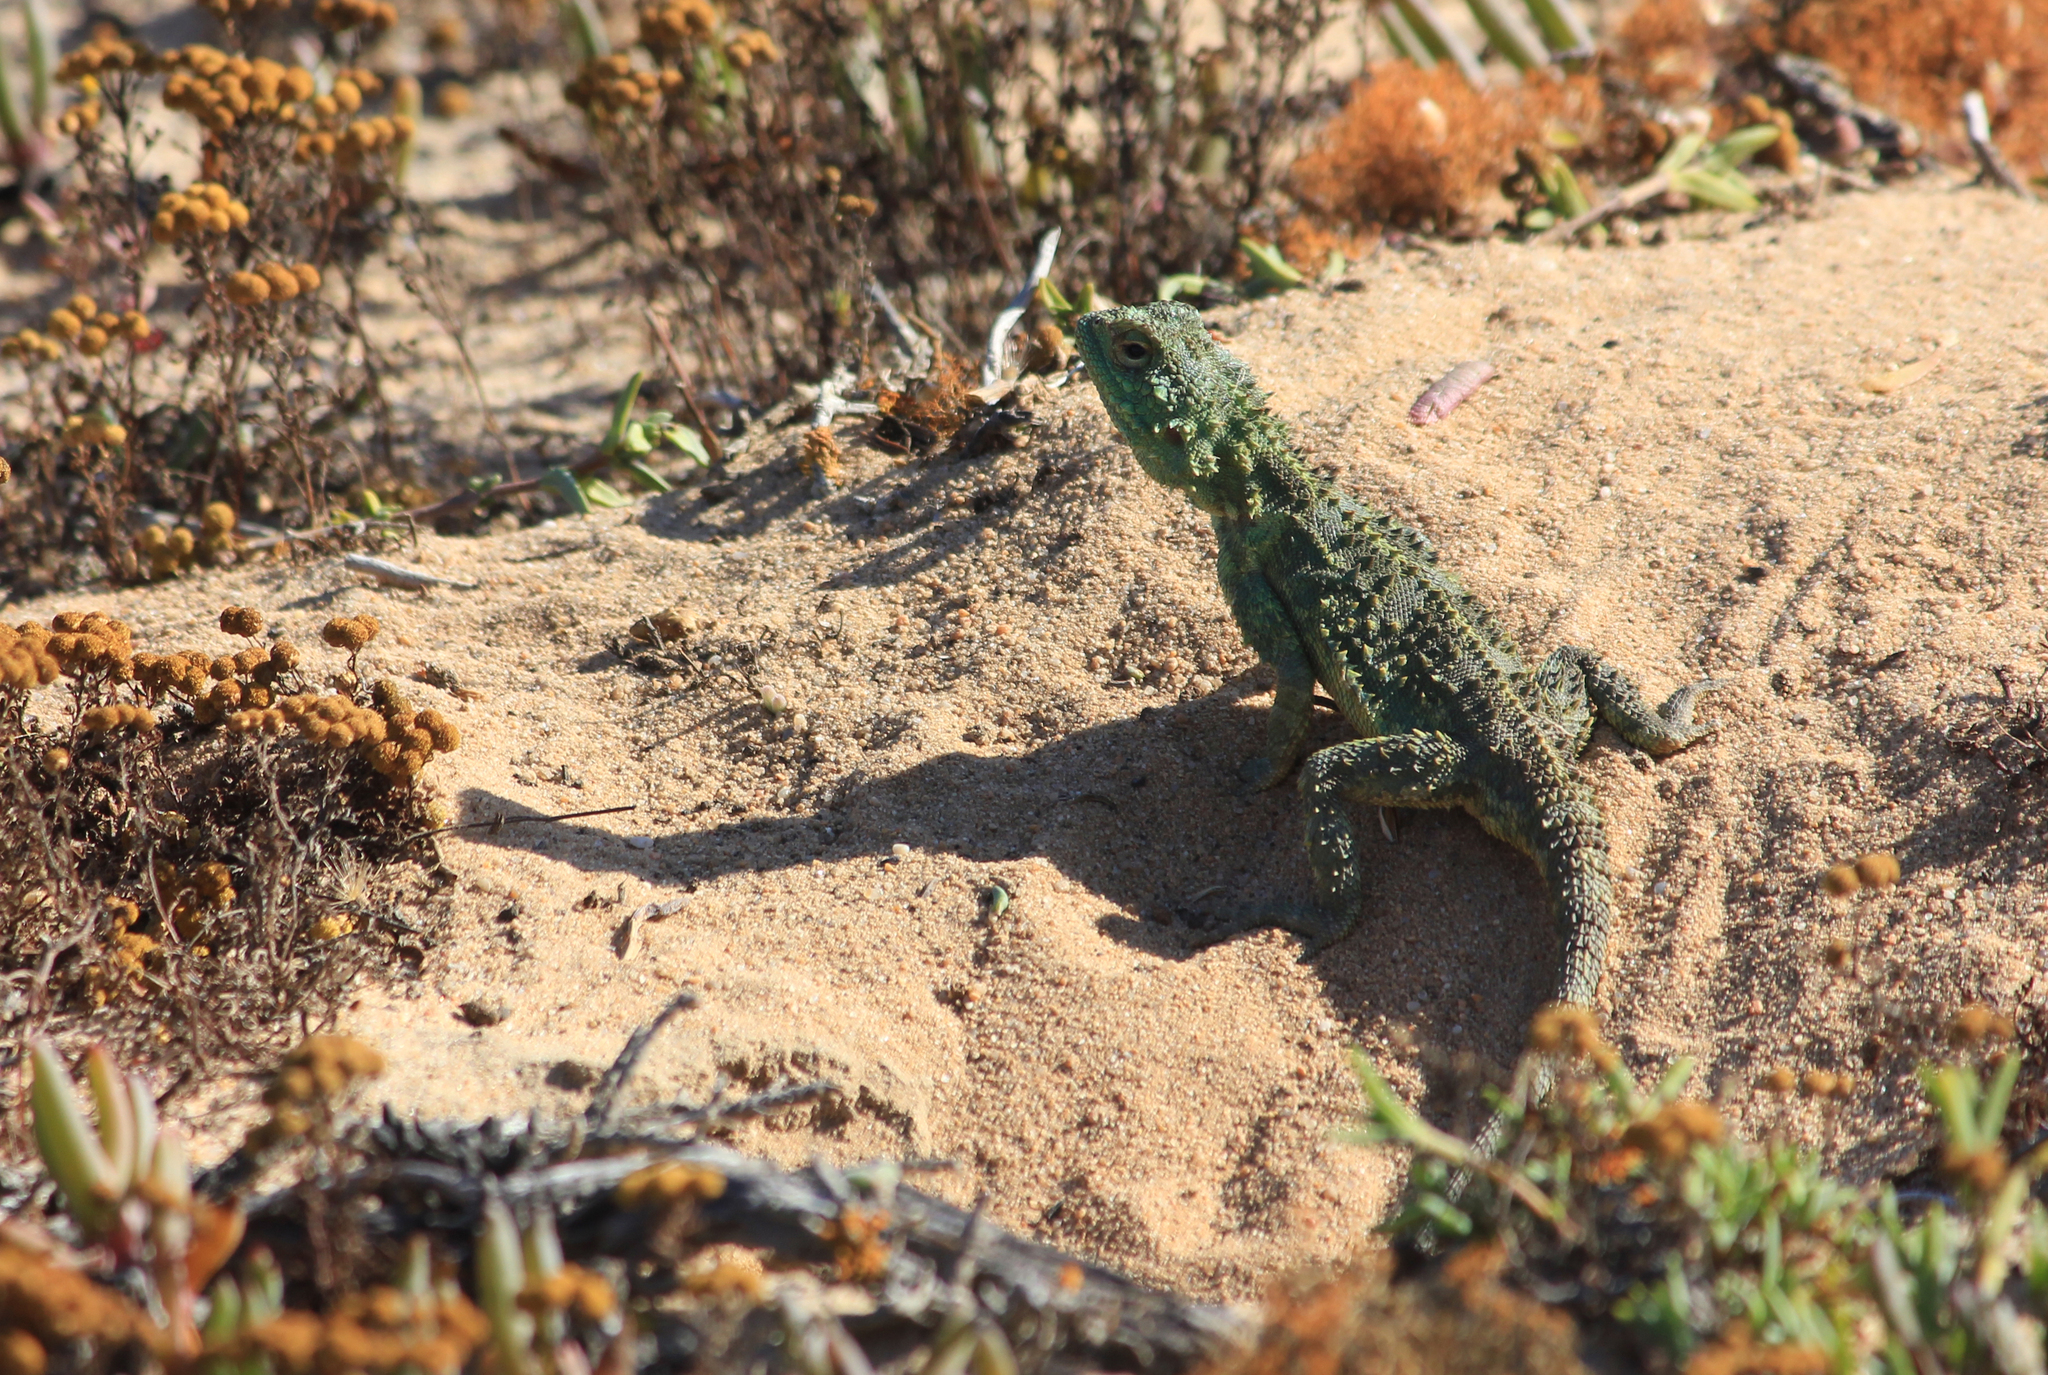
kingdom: Animalia
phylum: Chordata
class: Squamata
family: Agamidae
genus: Agama
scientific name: Agama hispida
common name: Common spiny agama
